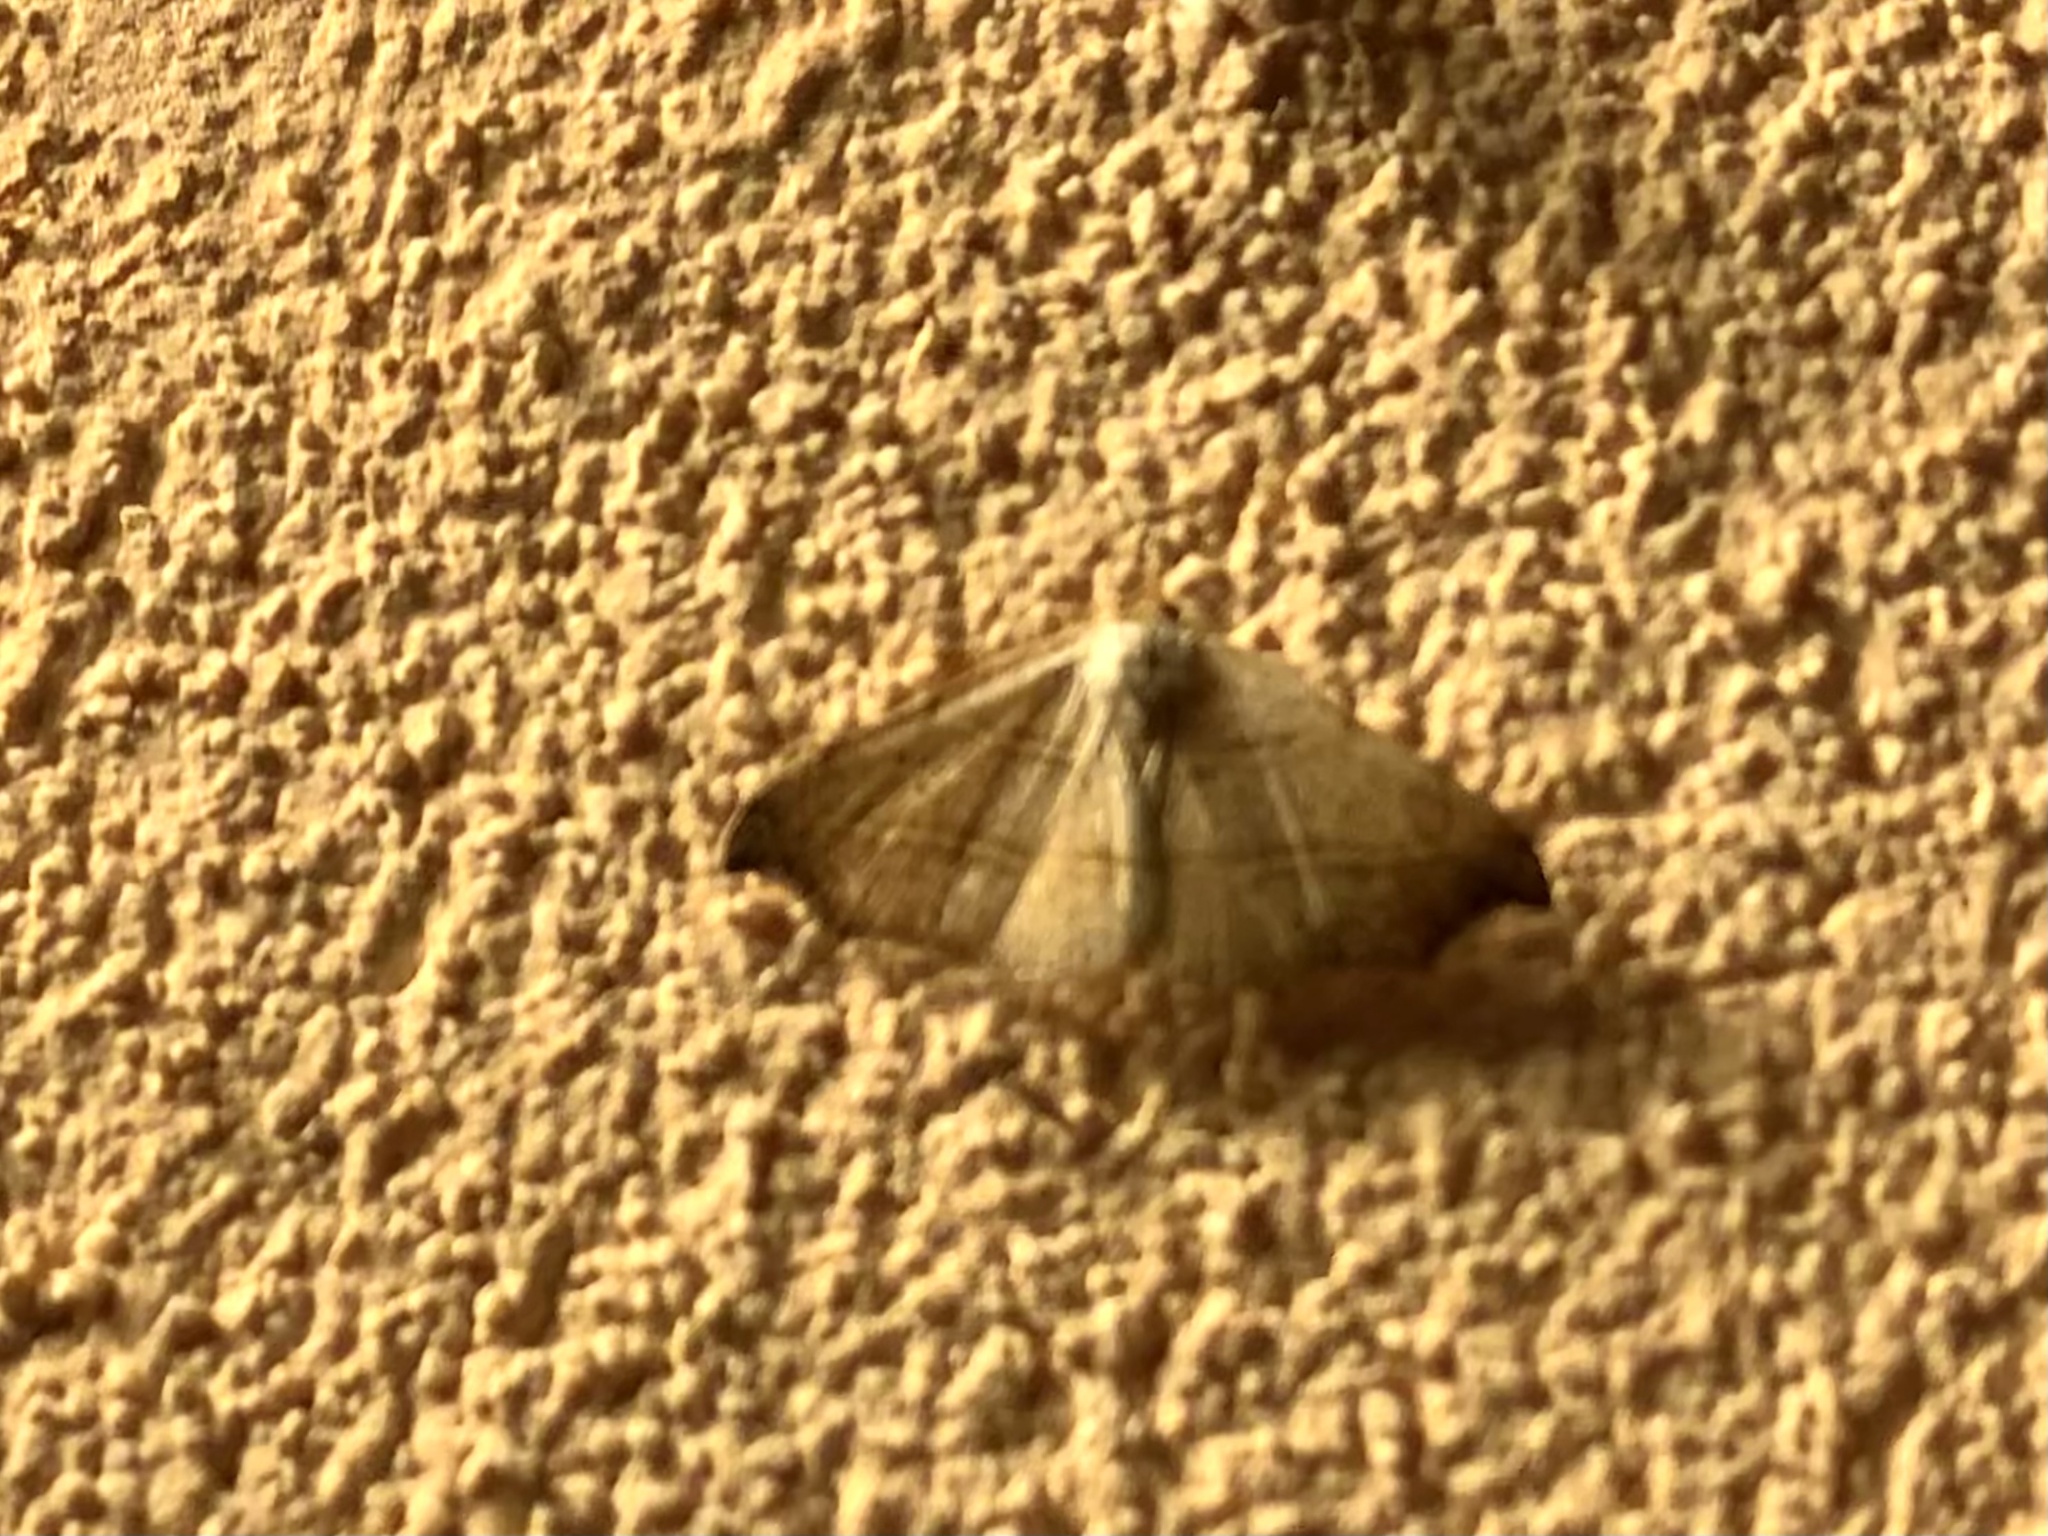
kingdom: Animalia
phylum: Arthropoda
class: Insecta
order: Lepidoptera
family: Erebidae
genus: Laspeyria
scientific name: Laspeyria flexula
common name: Beautiful hook-tip
